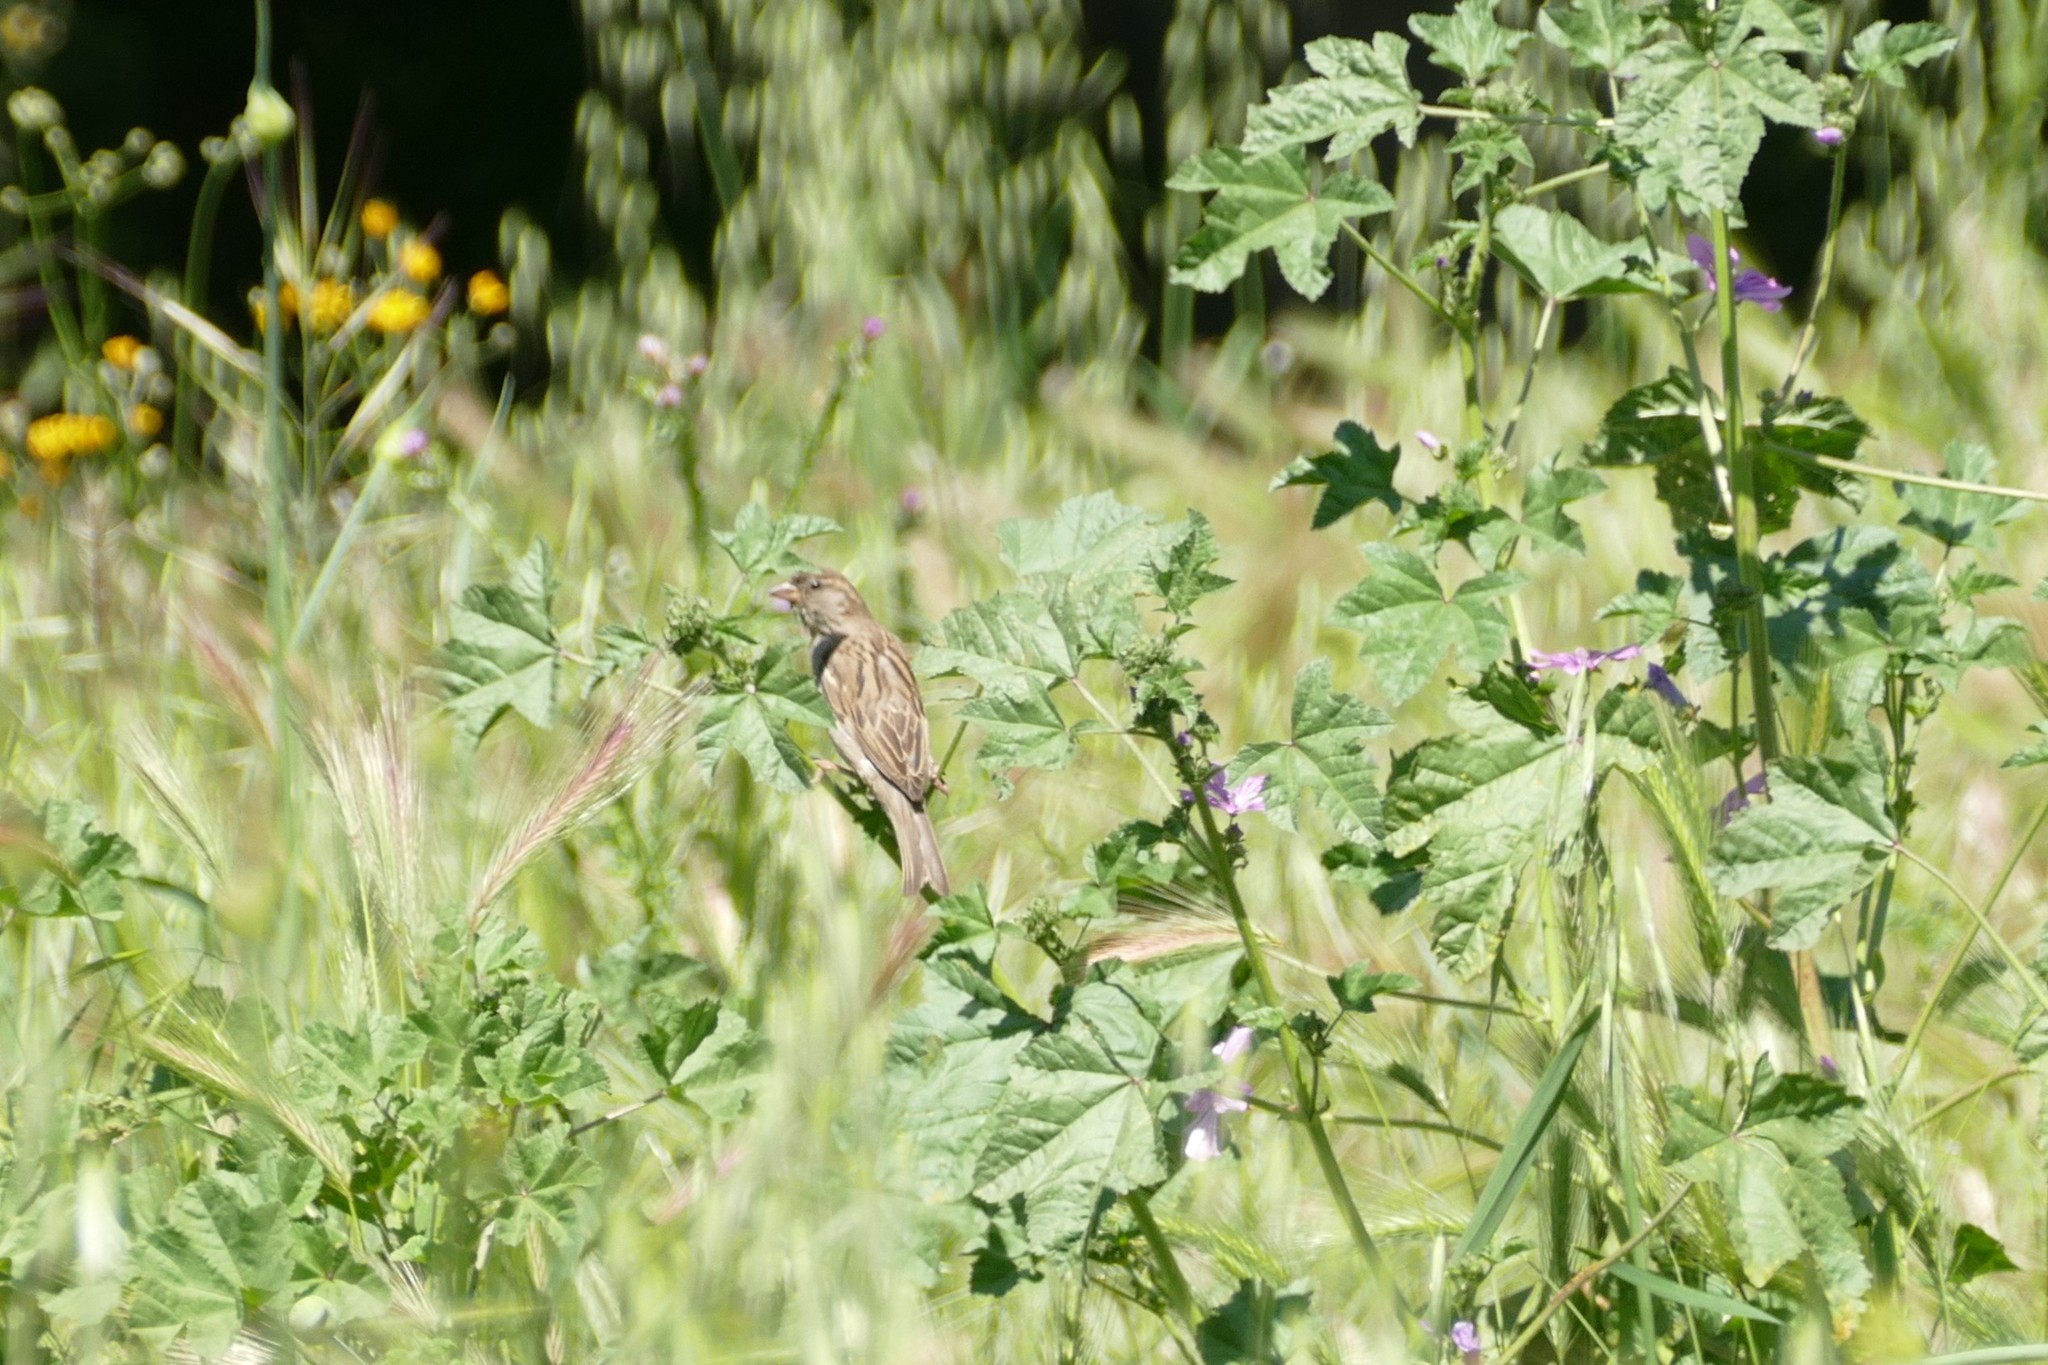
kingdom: Animalia
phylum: Chordata
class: Aves
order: Passeriformes
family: Passeridae
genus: Passer
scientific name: Passer domesticus
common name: House sparrow
